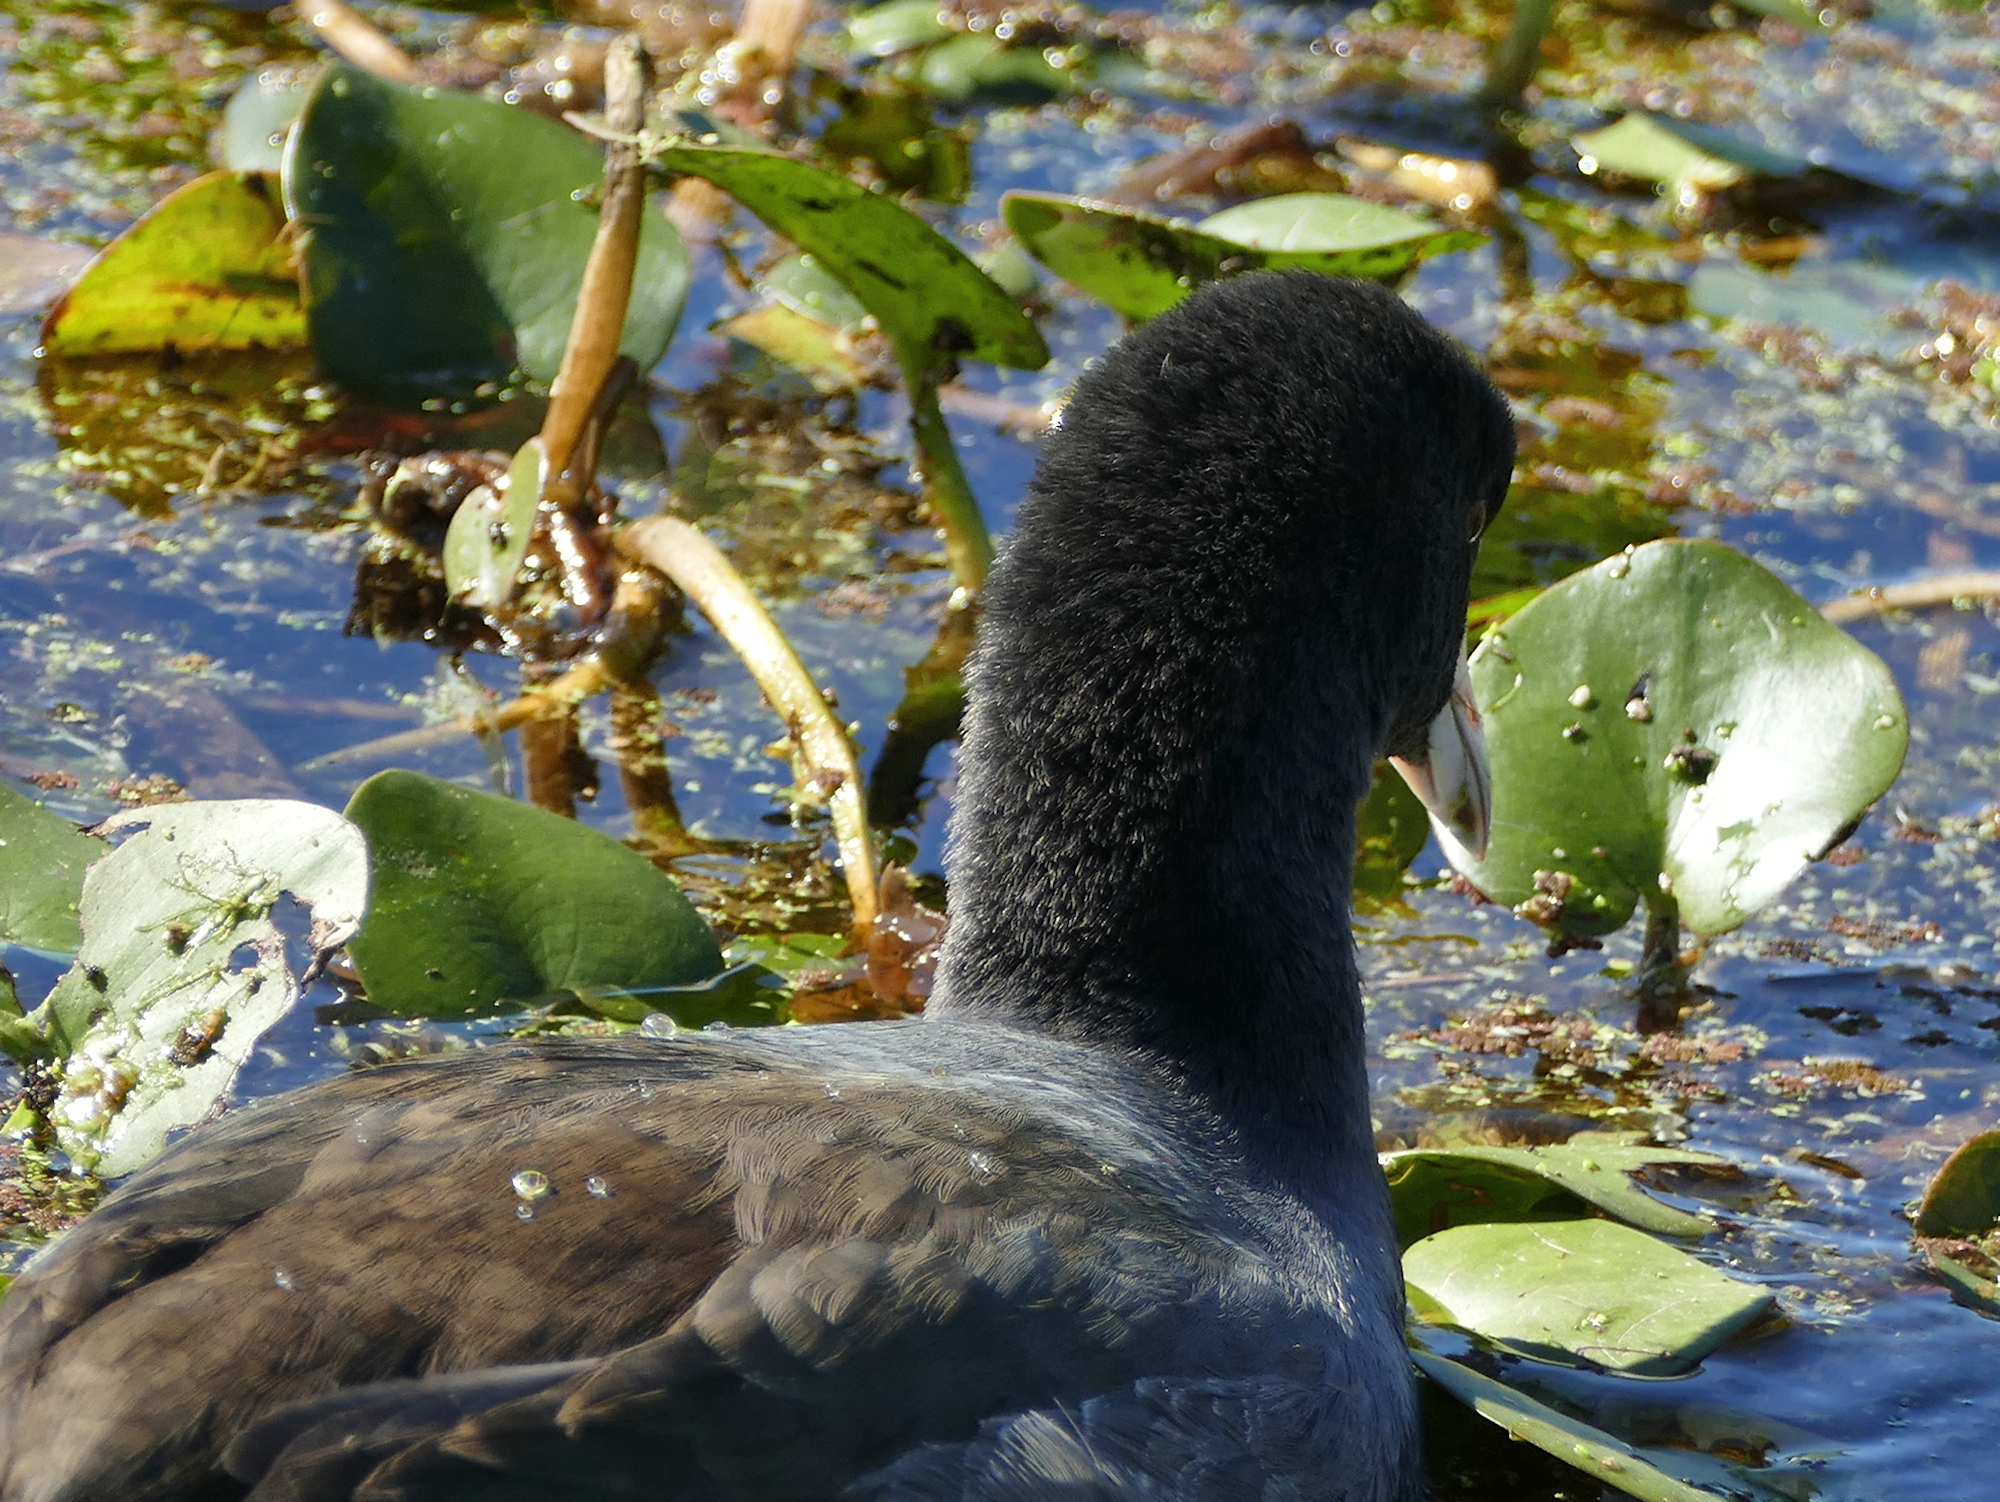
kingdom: Animalia
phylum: Chordata
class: Aves
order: Gruiformes
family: Rallidae
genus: Fulica
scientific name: Fulica americana
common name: American coot
